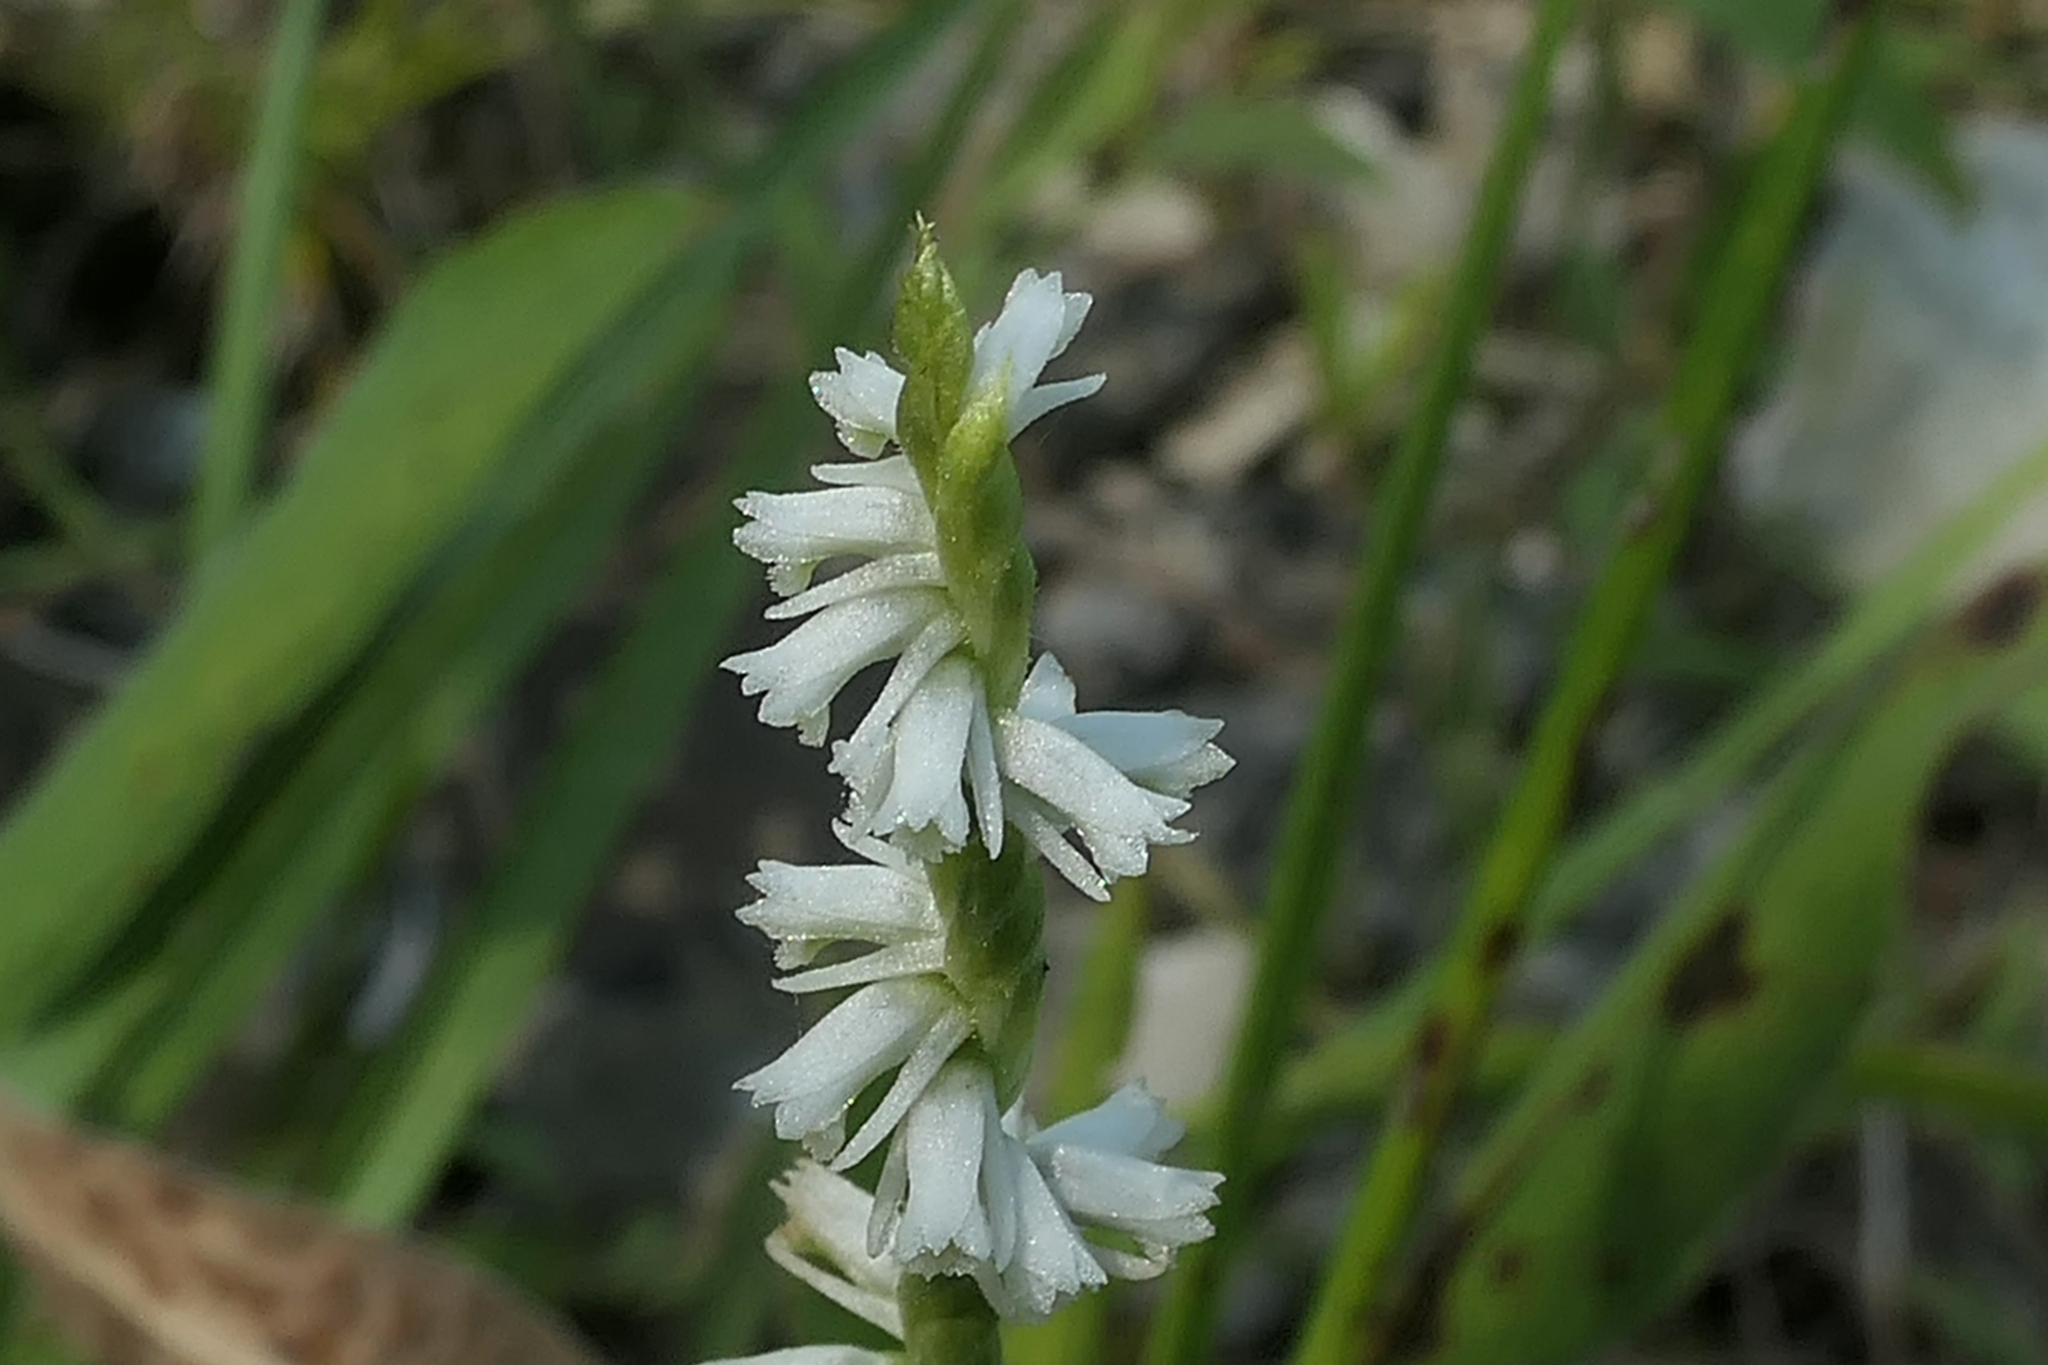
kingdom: Plantae
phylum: Tracheophyta
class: Liliopsida
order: Asparagales
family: Orchidaceae
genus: Spiranthes
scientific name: Spiranthes lacera
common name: Northern slender ladies'-tresses
